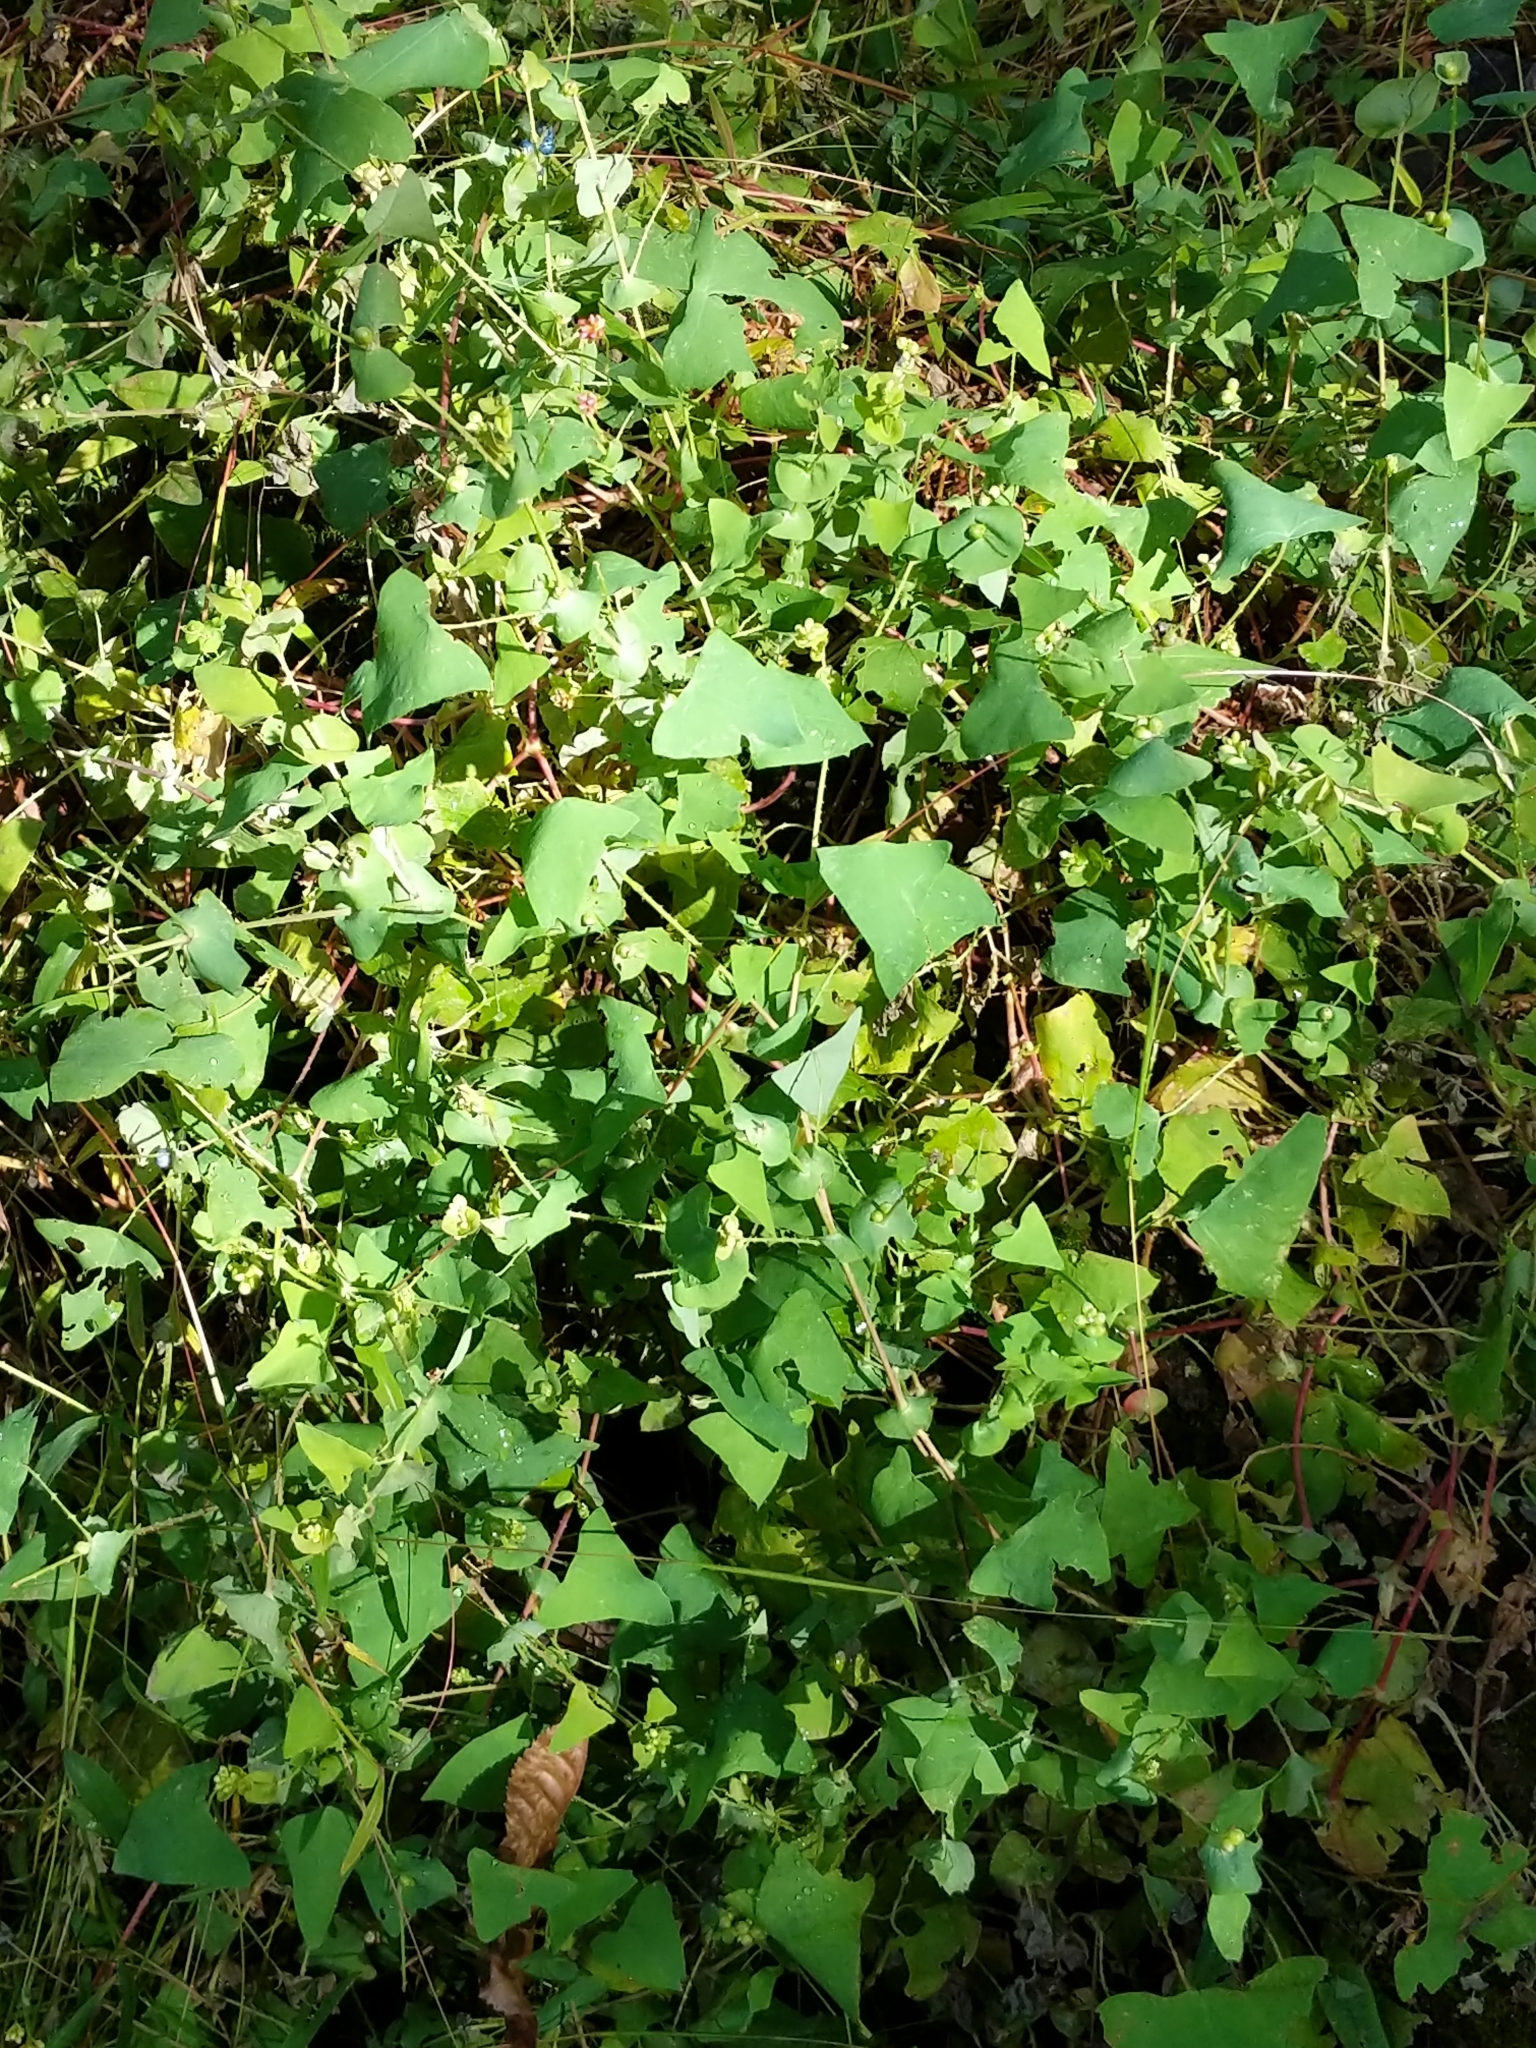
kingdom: Plantae
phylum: Tracheophyta
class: Magnoliopsida
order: Caryophyllales
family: Polygonaceae
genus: Persicaria
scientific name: Persicaria perfoliata
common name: Asiatic tearthumb
